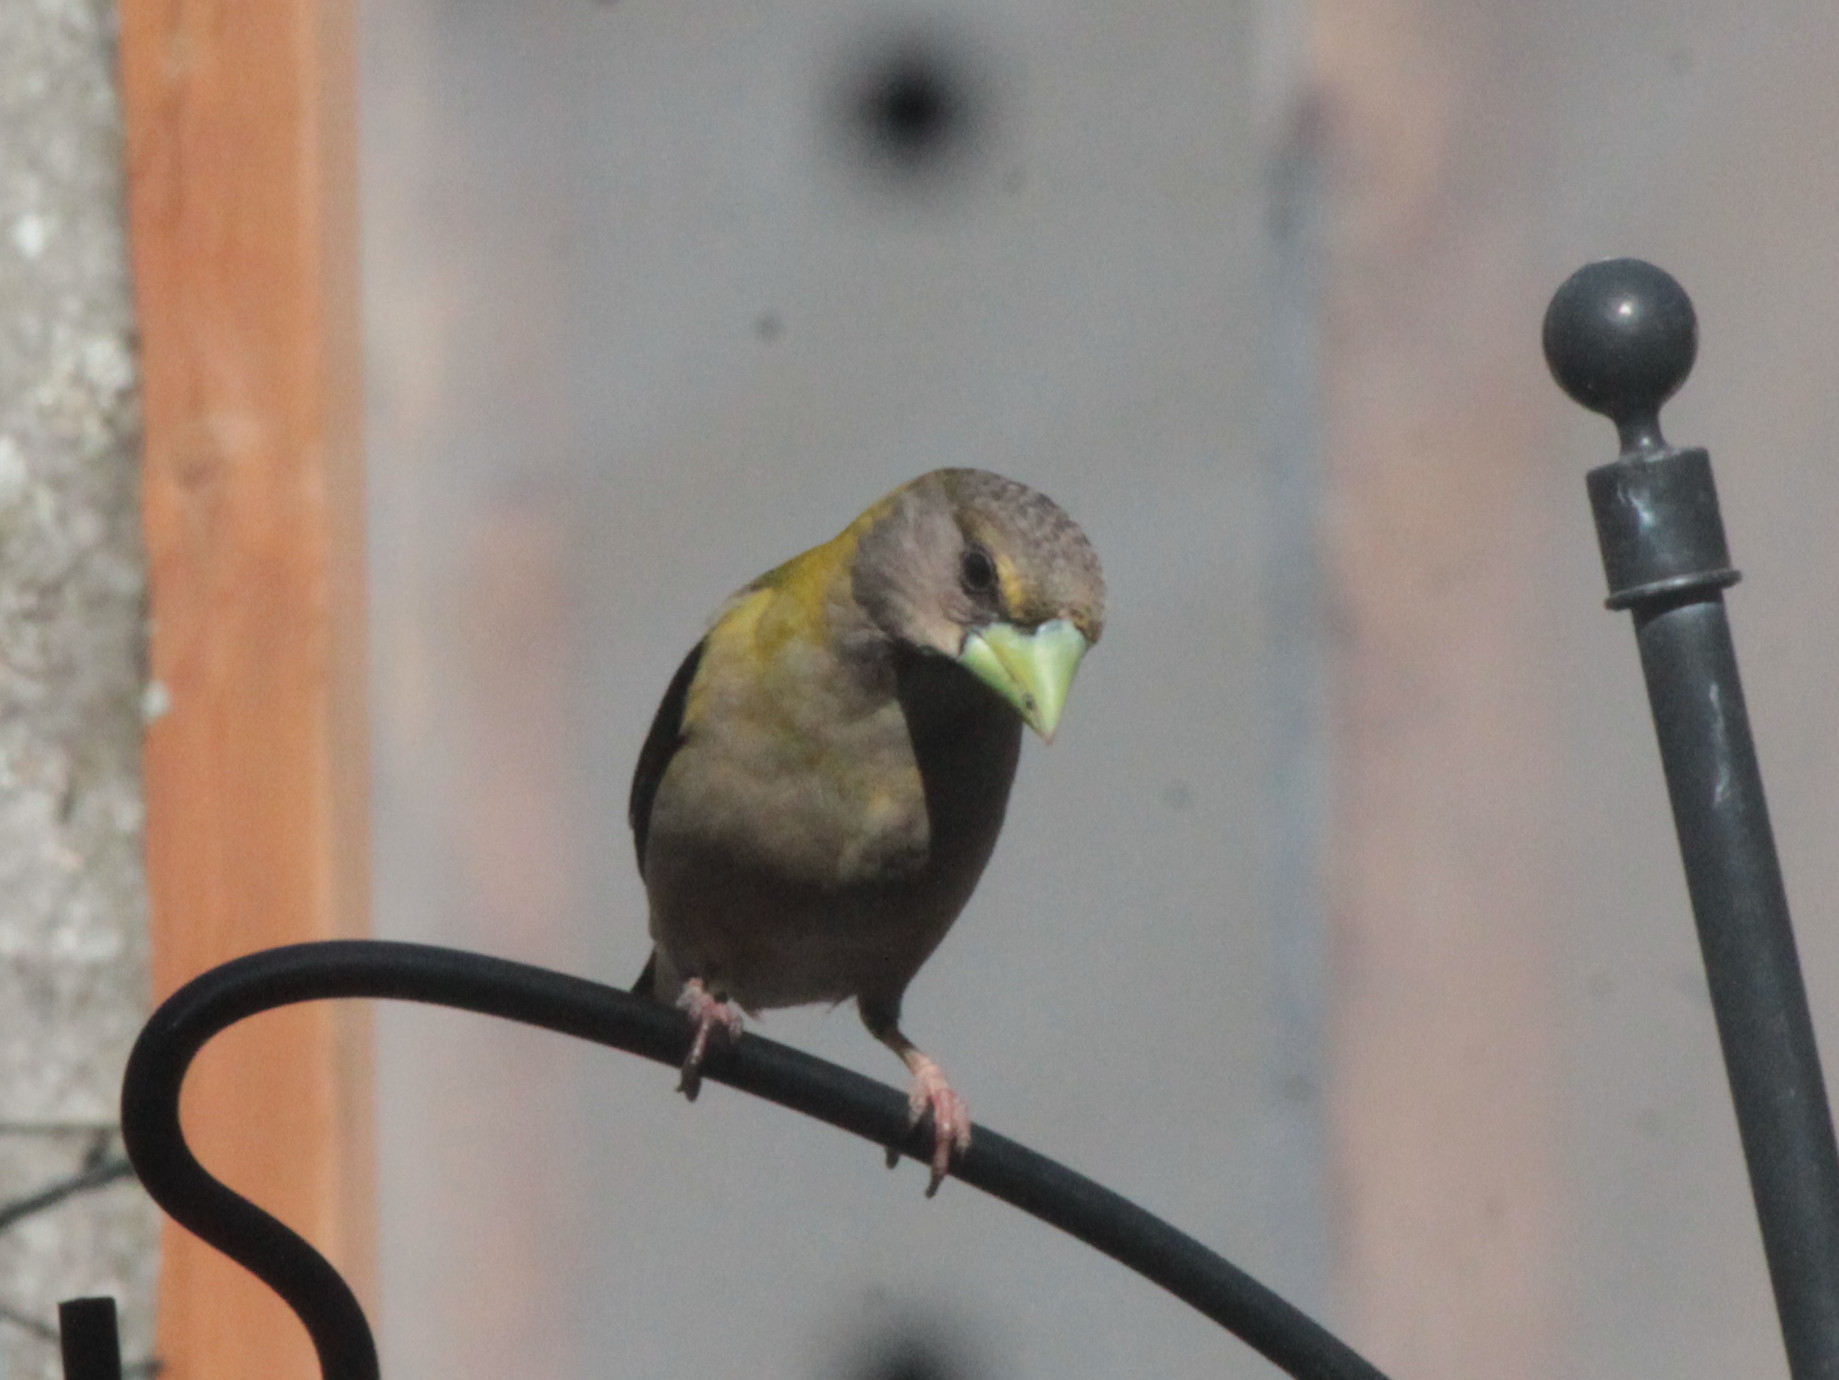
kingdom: Animalia
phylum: Chordata
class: Aves
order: Passeriformes
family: Fringillidae
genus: Hesperiphona
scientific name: Hesperiphona vespertina
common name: Evening grosbeak
